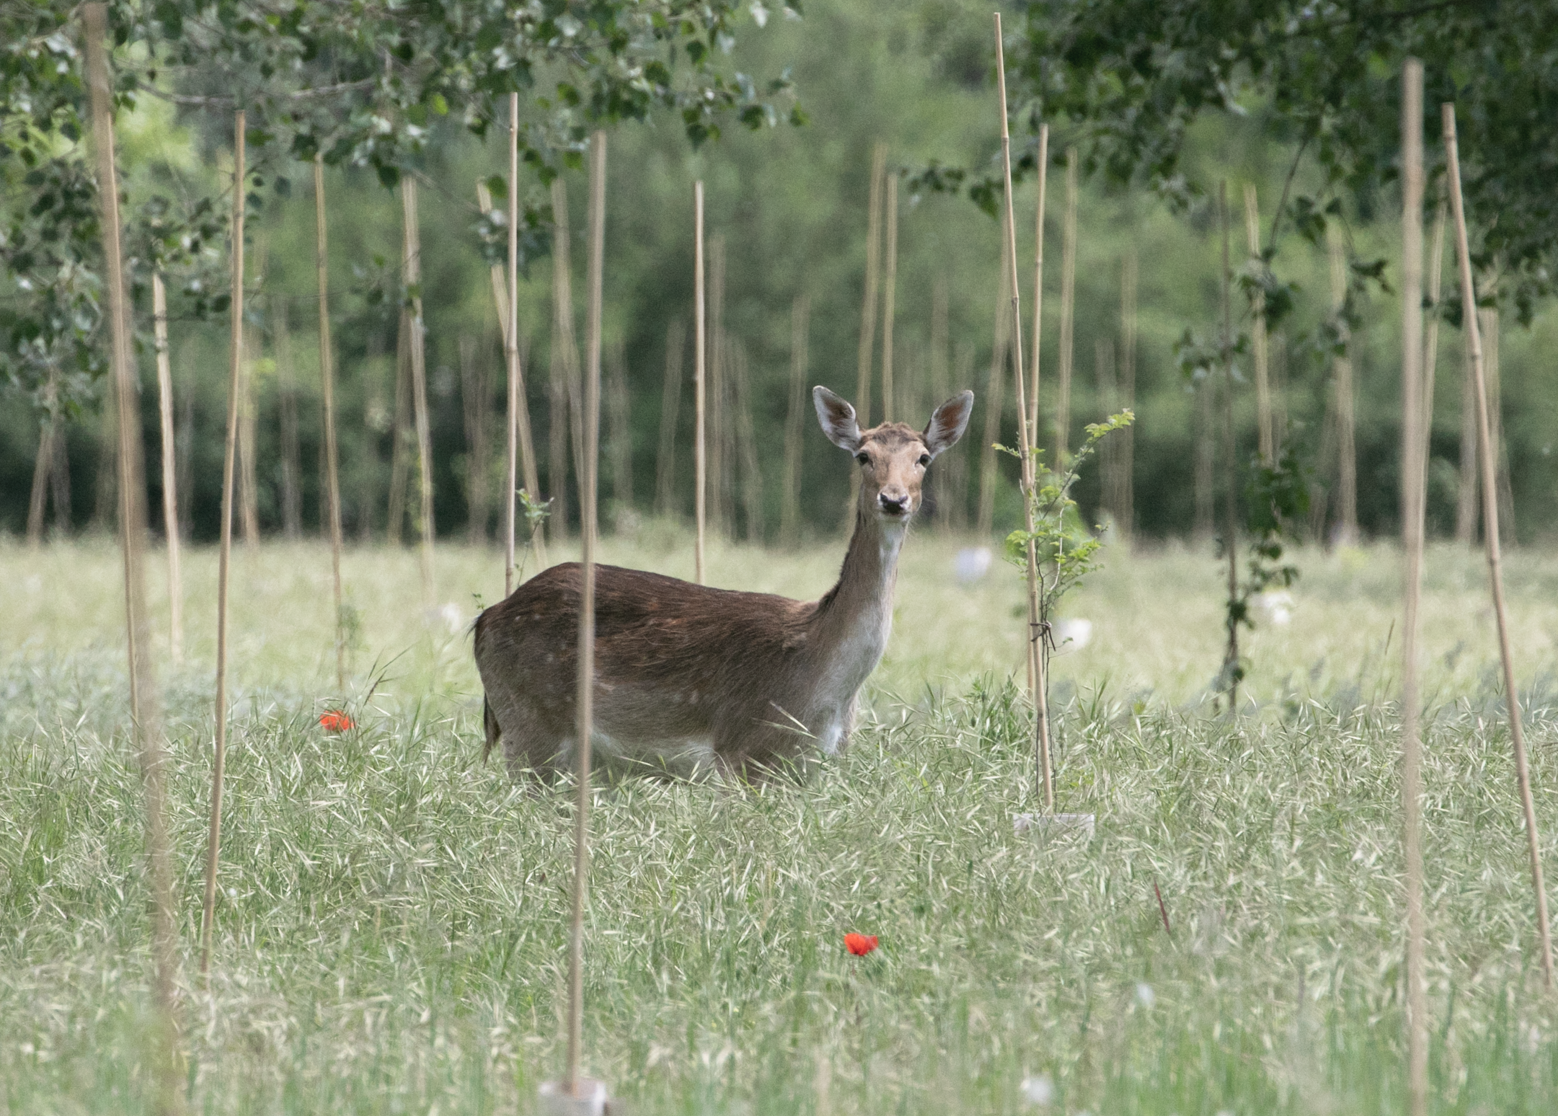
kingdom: Animalia
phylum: Chordata
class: Mammalia
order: Artiodactyla
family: Cervidae
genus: Dama
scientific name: Dama dama
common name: Fallow deer
